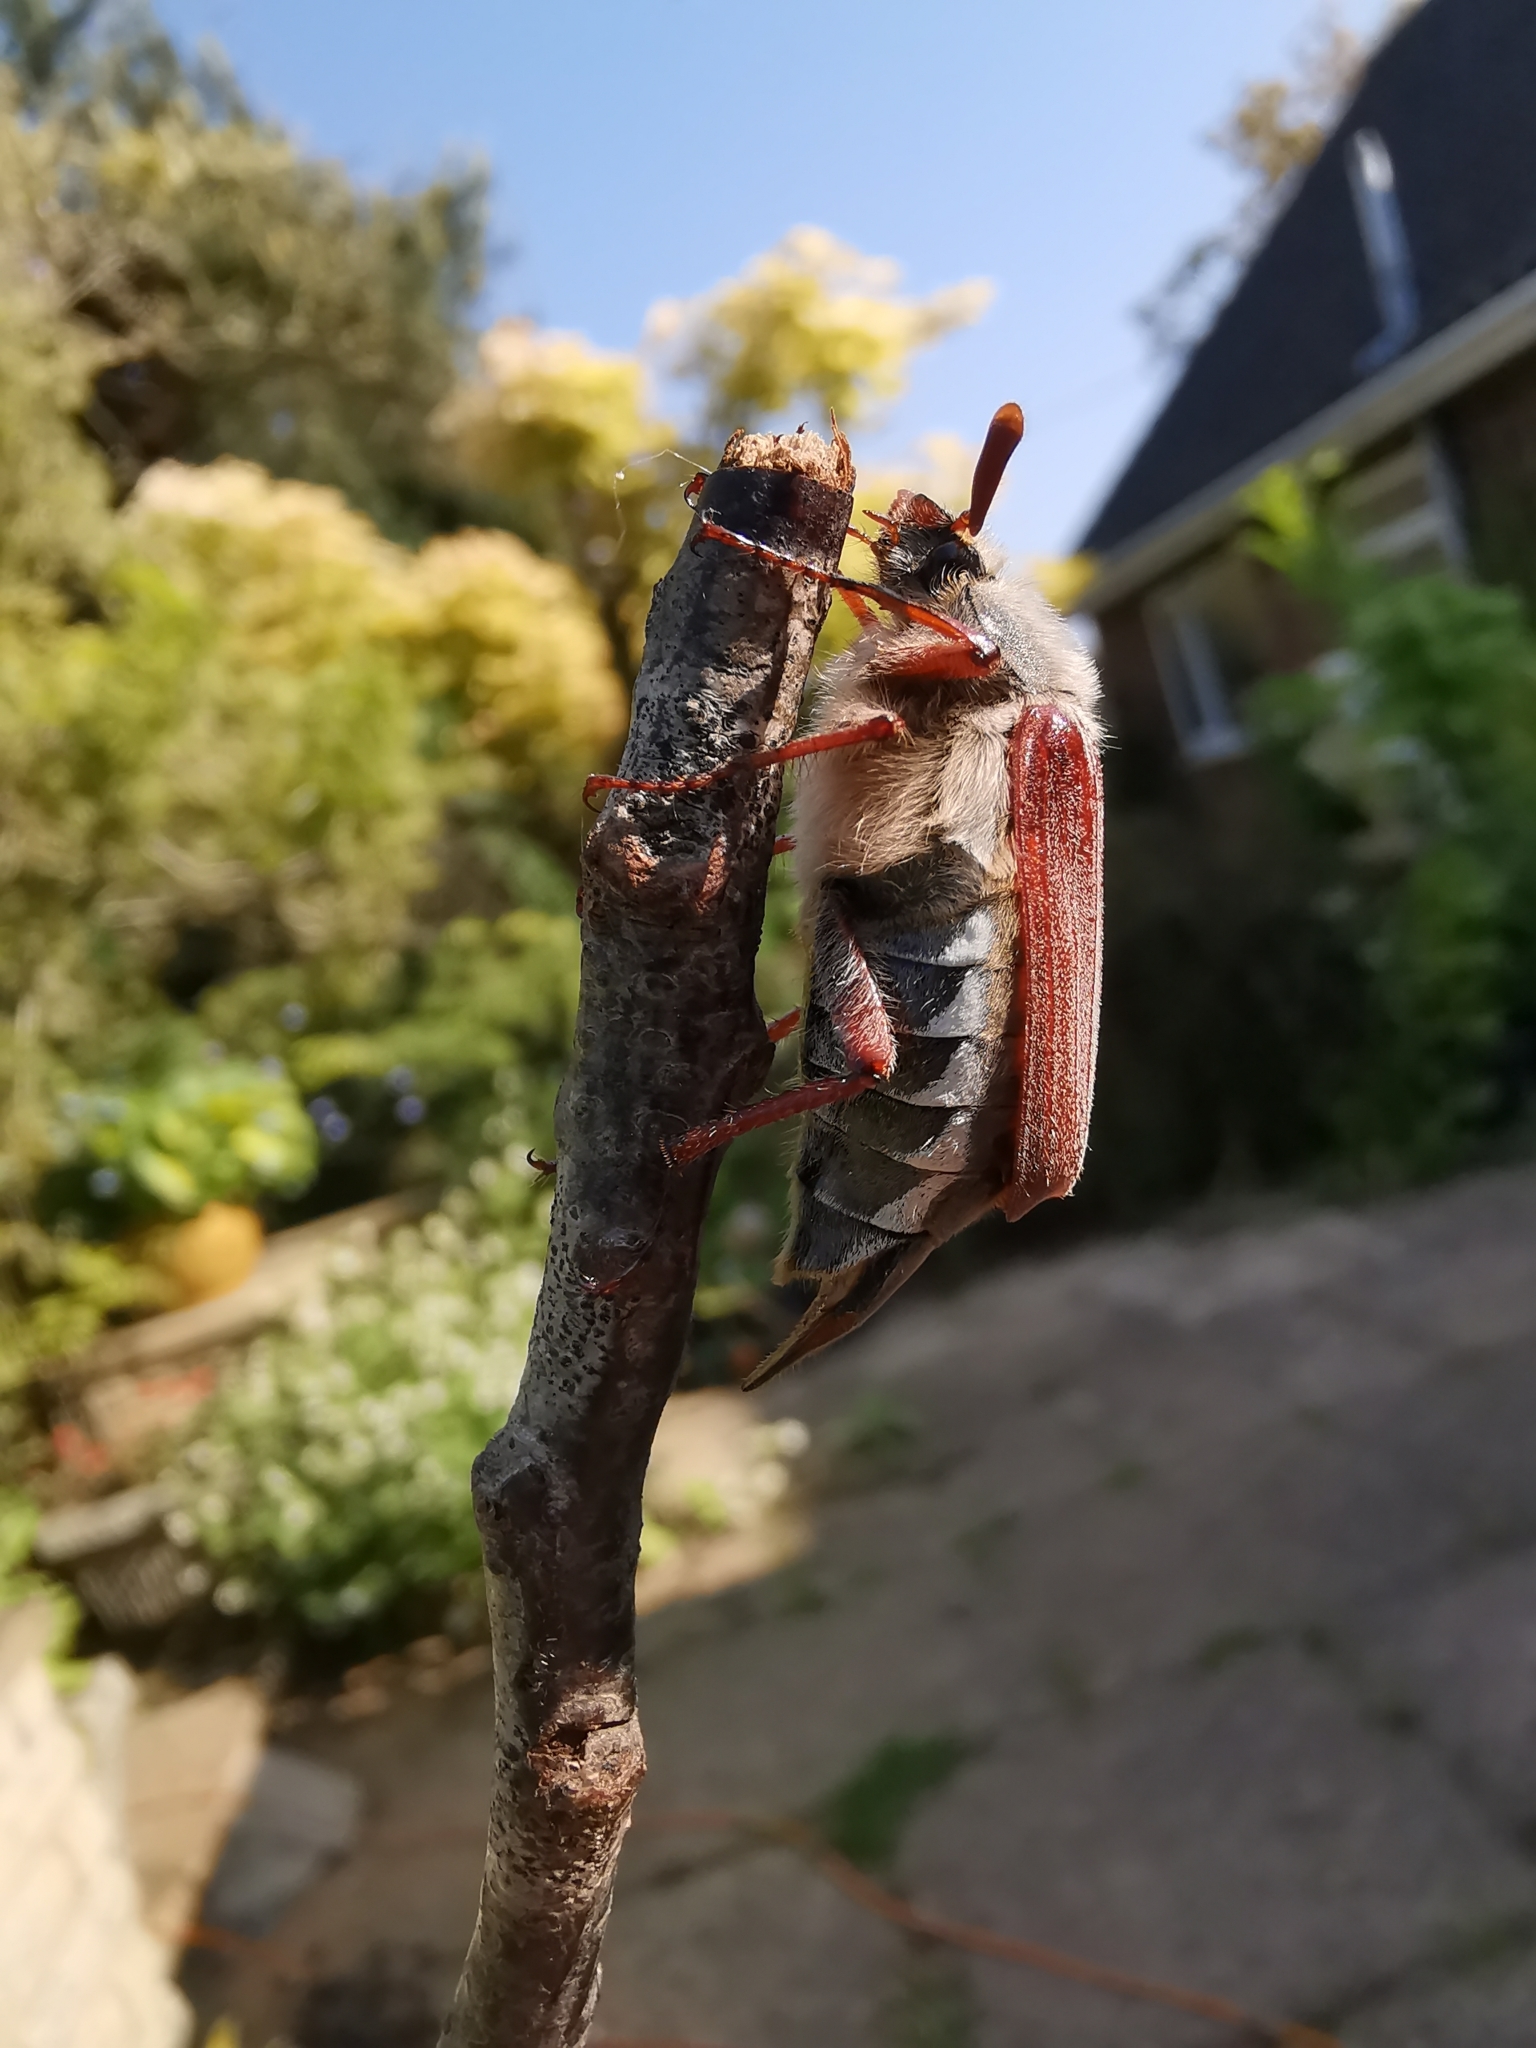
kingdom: Animalia
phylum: Arthropoda
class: Insecta
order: Coleoptera
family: Scarabaeidae
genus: Melolontha
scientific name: Melolontha melolontha
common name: Cockchafer maybeetle
